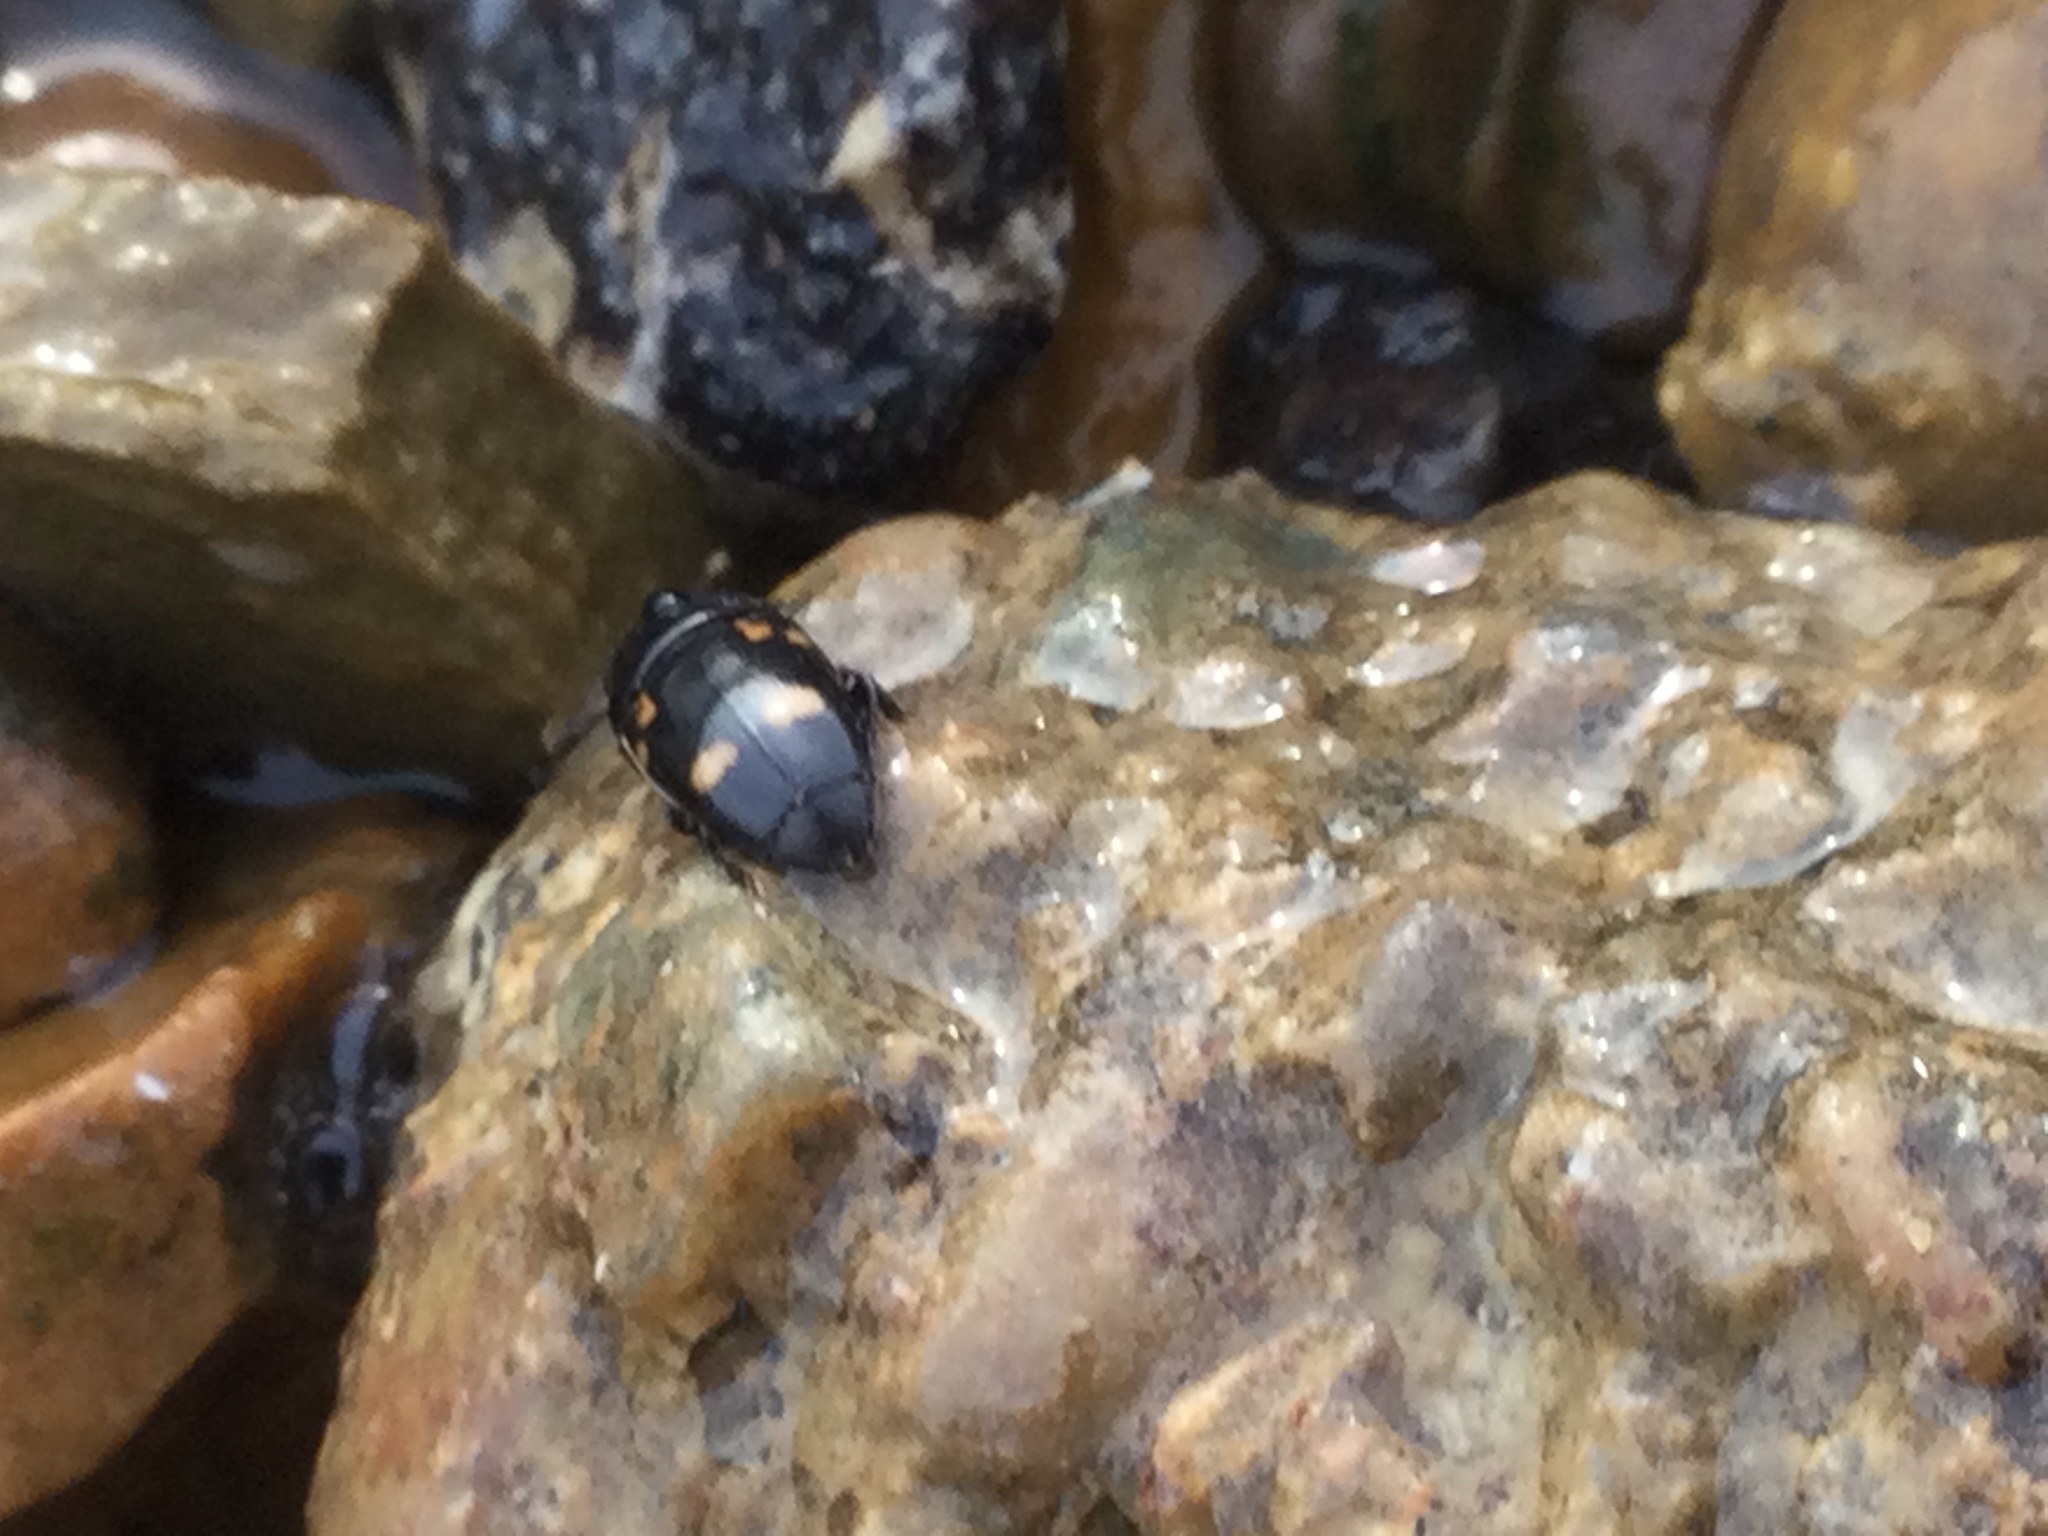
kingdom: Animalia
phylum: Arthropoda
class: Insecta
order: Coleoptera
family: Nitidulidae
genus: Glischrochilus
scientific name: Glischrochilus quadrisignatus
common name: Picnic beetle
